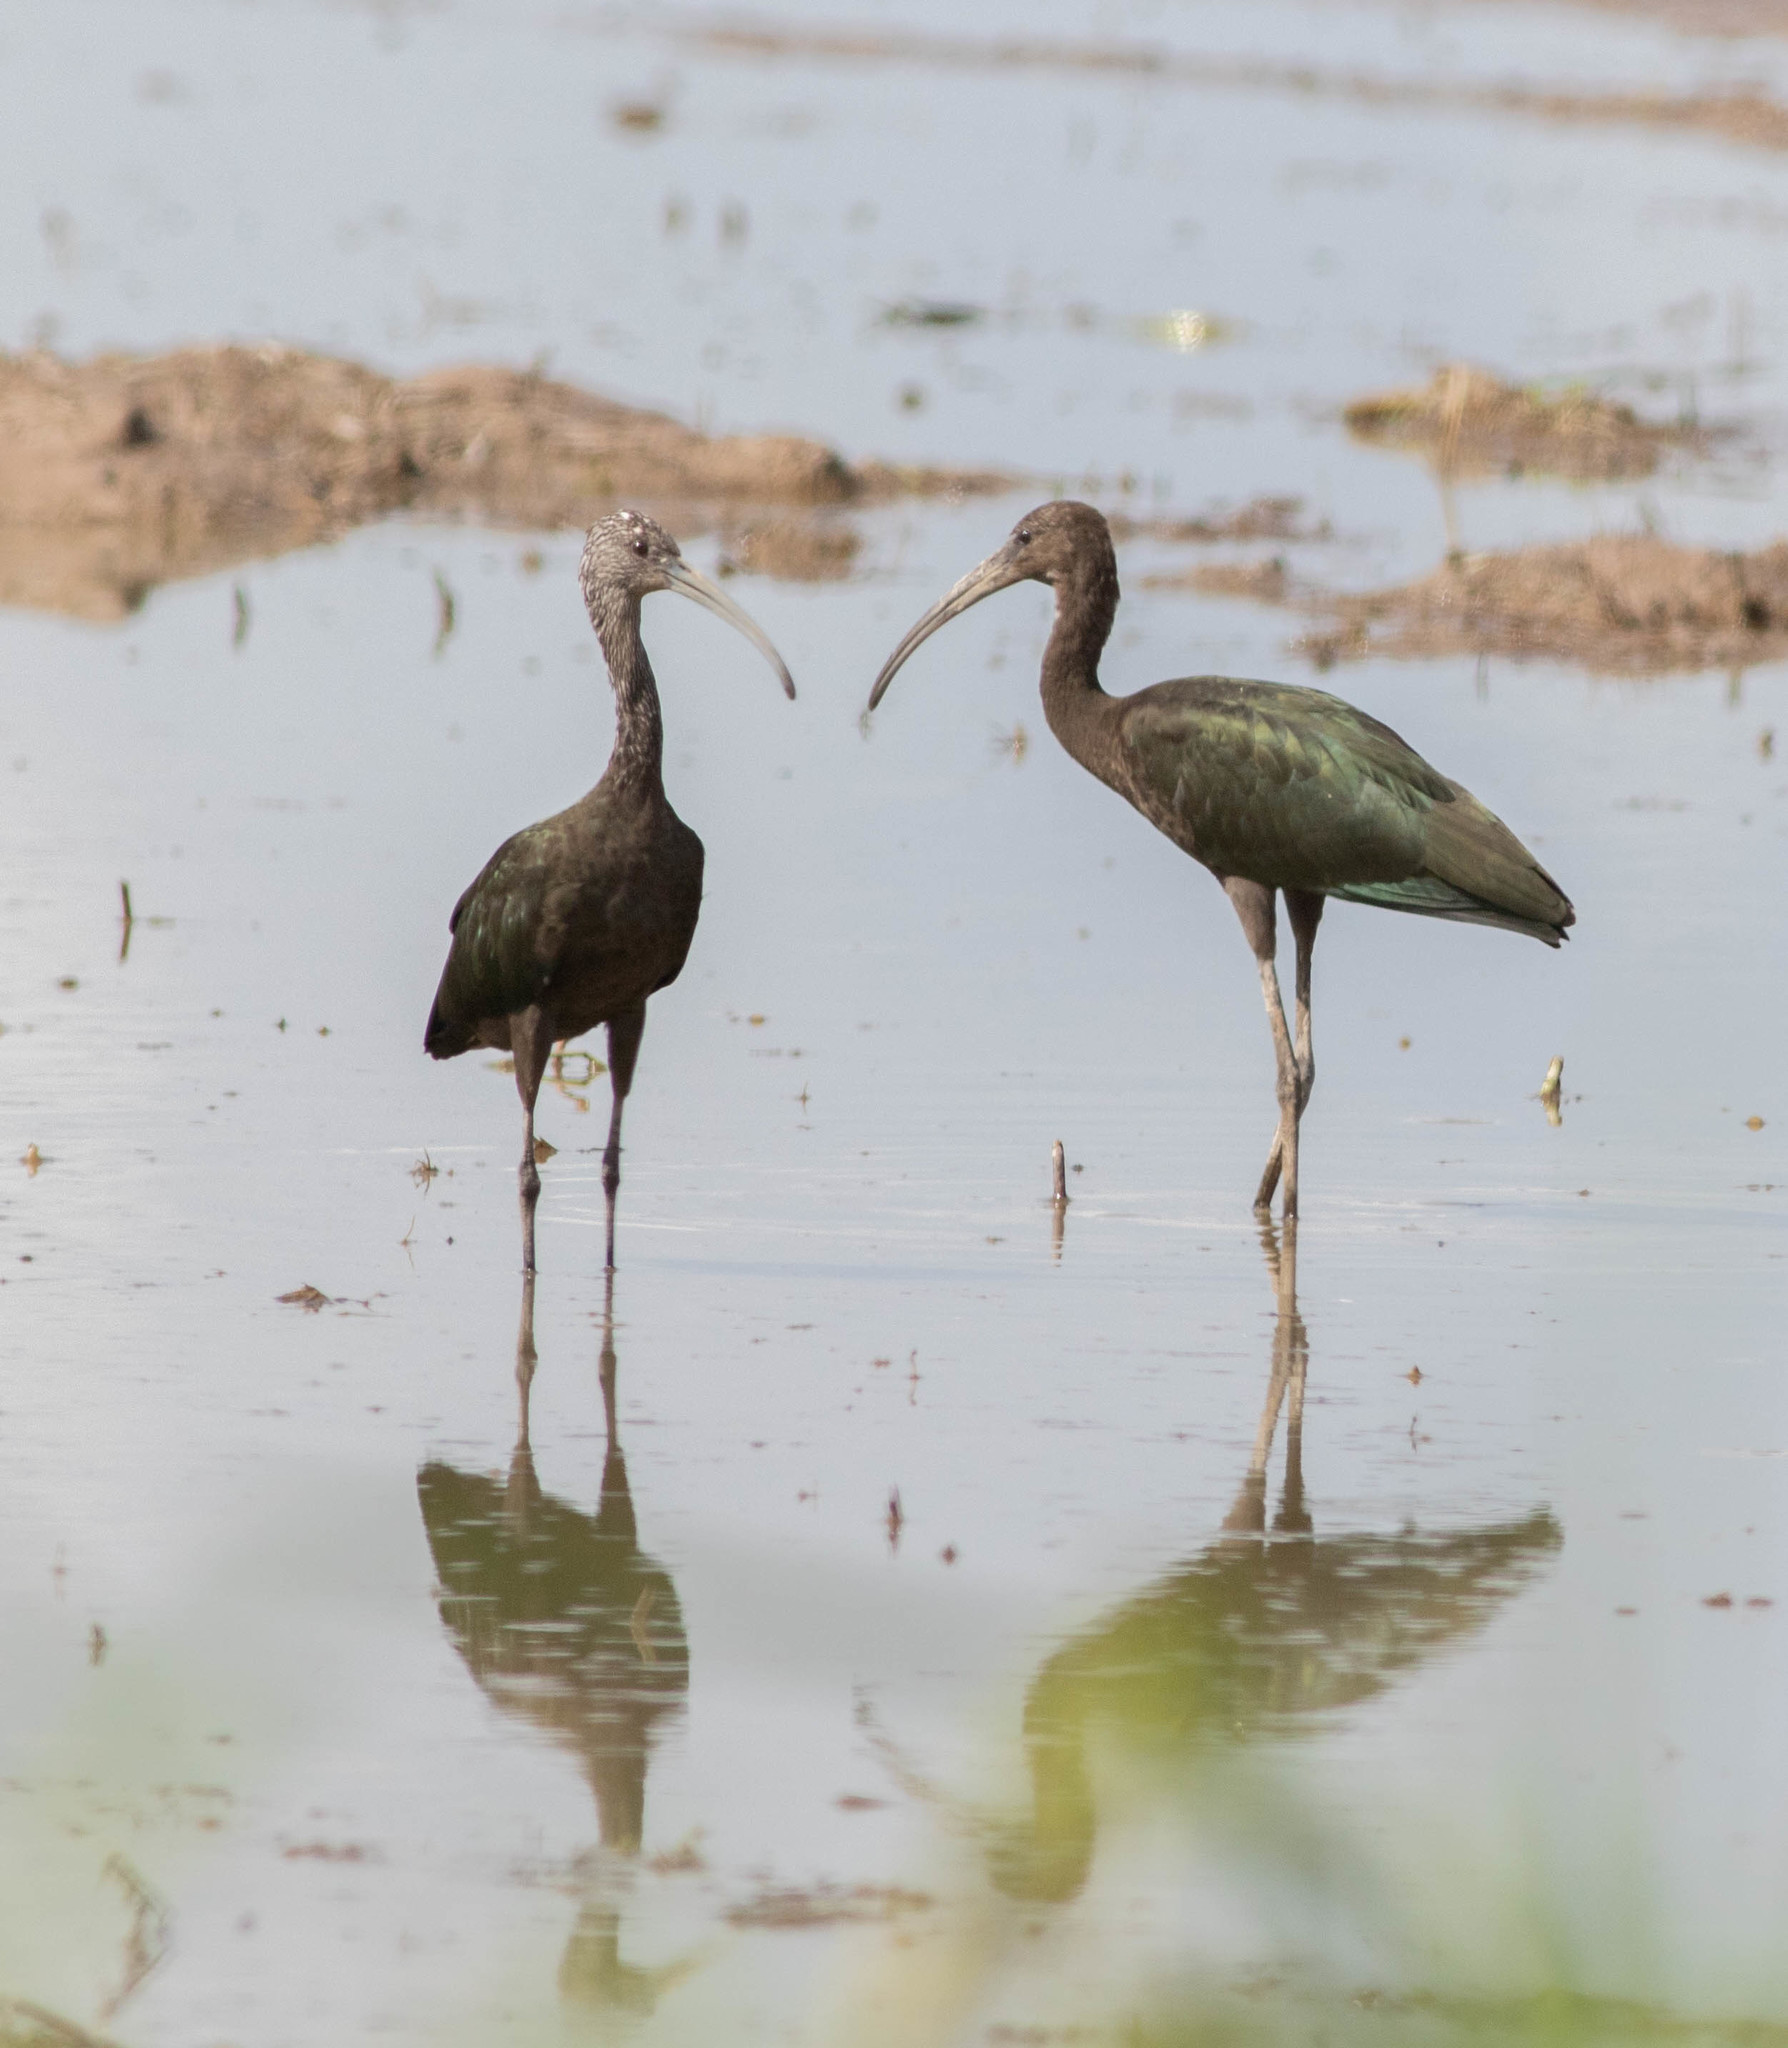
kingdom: Animalia
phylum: Chordata
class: Aves
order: Pelecaniformes
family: Threskiornithidae
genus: Plegadis
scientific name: Plegadis
